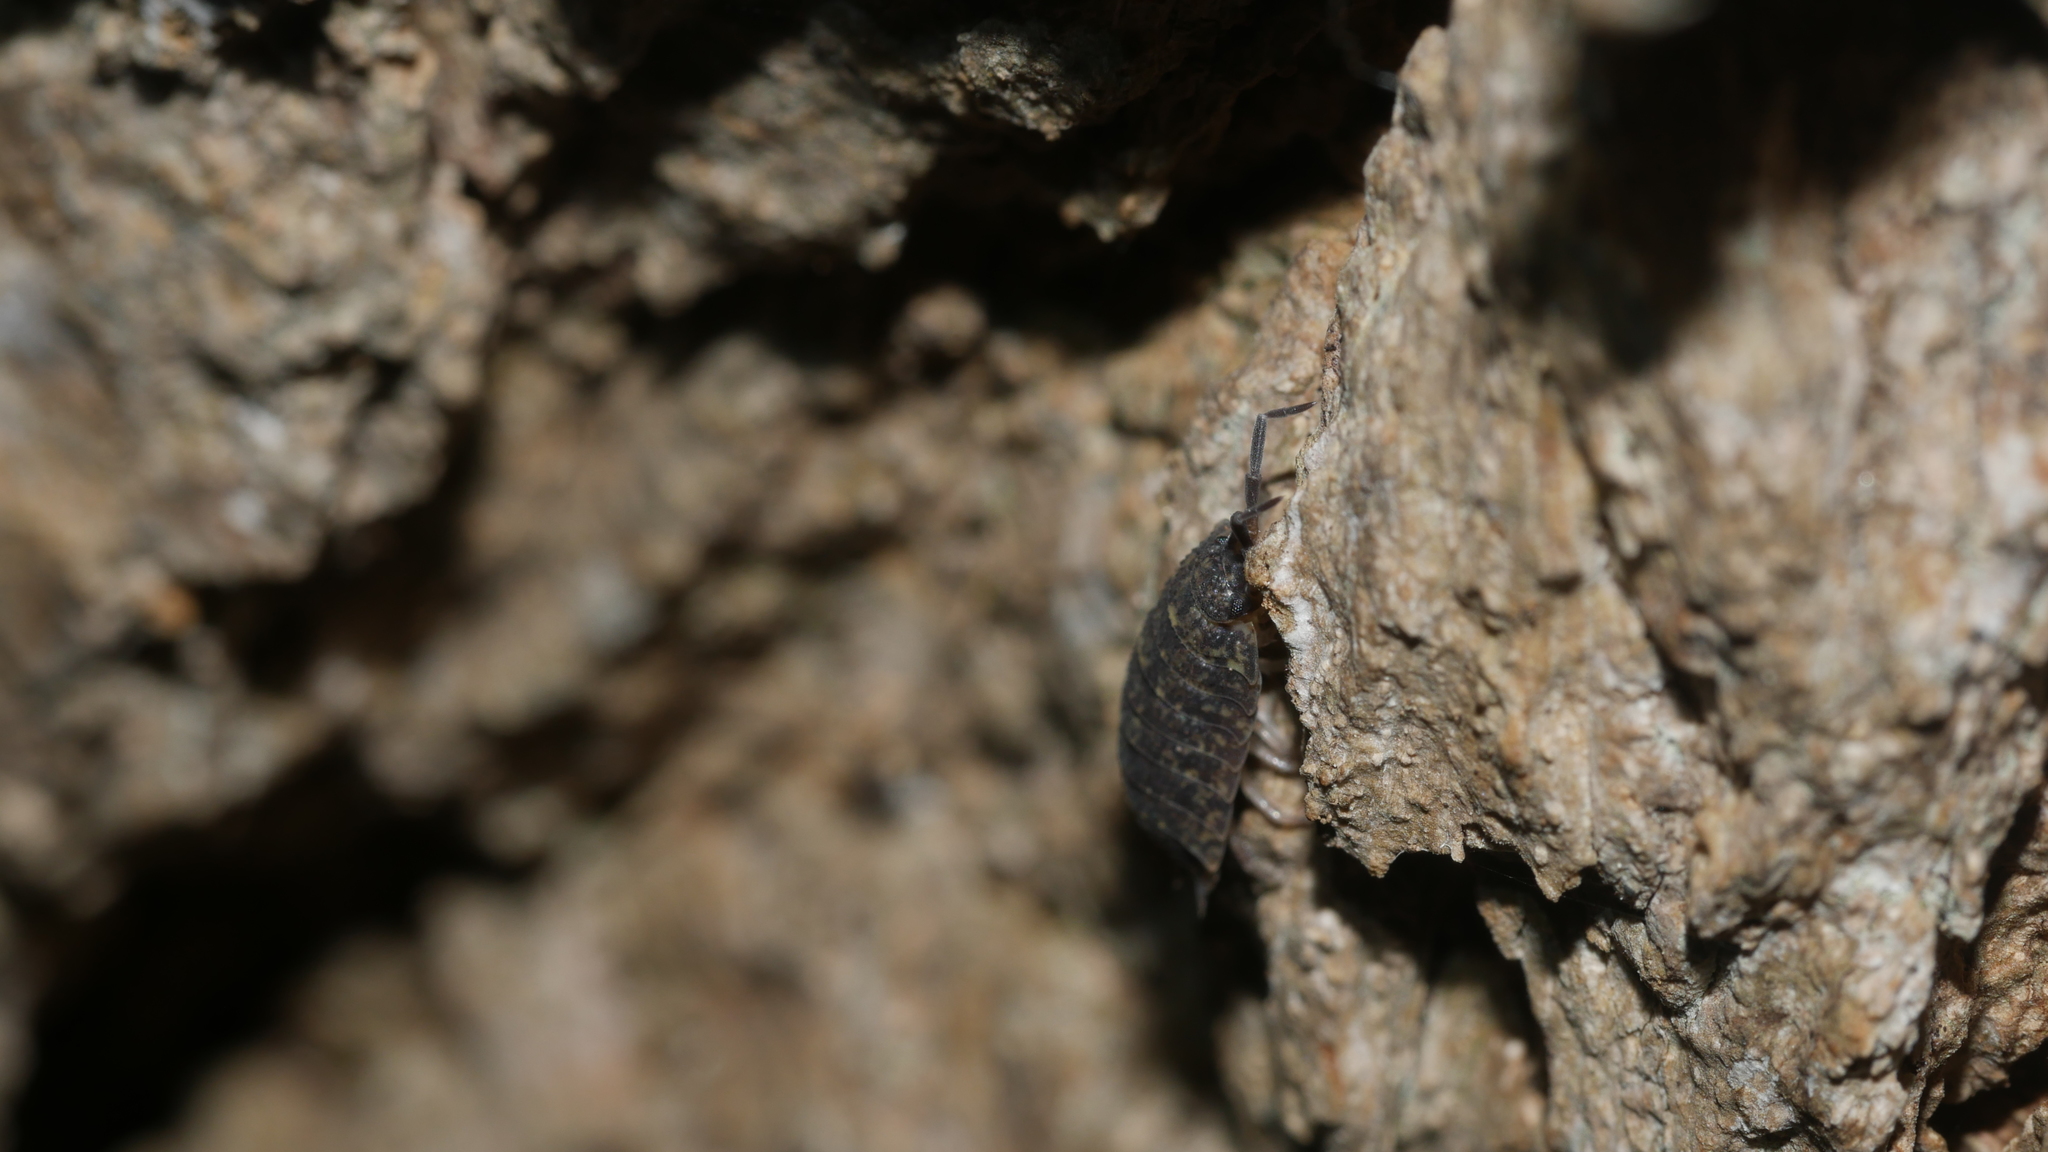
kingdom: Animalia
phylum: Arthropoda
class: Malacostraca
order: Isopoda
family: Porcellionidae
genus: Porcellio
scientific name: Porcellio scaber
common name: Common rough woodlouse
